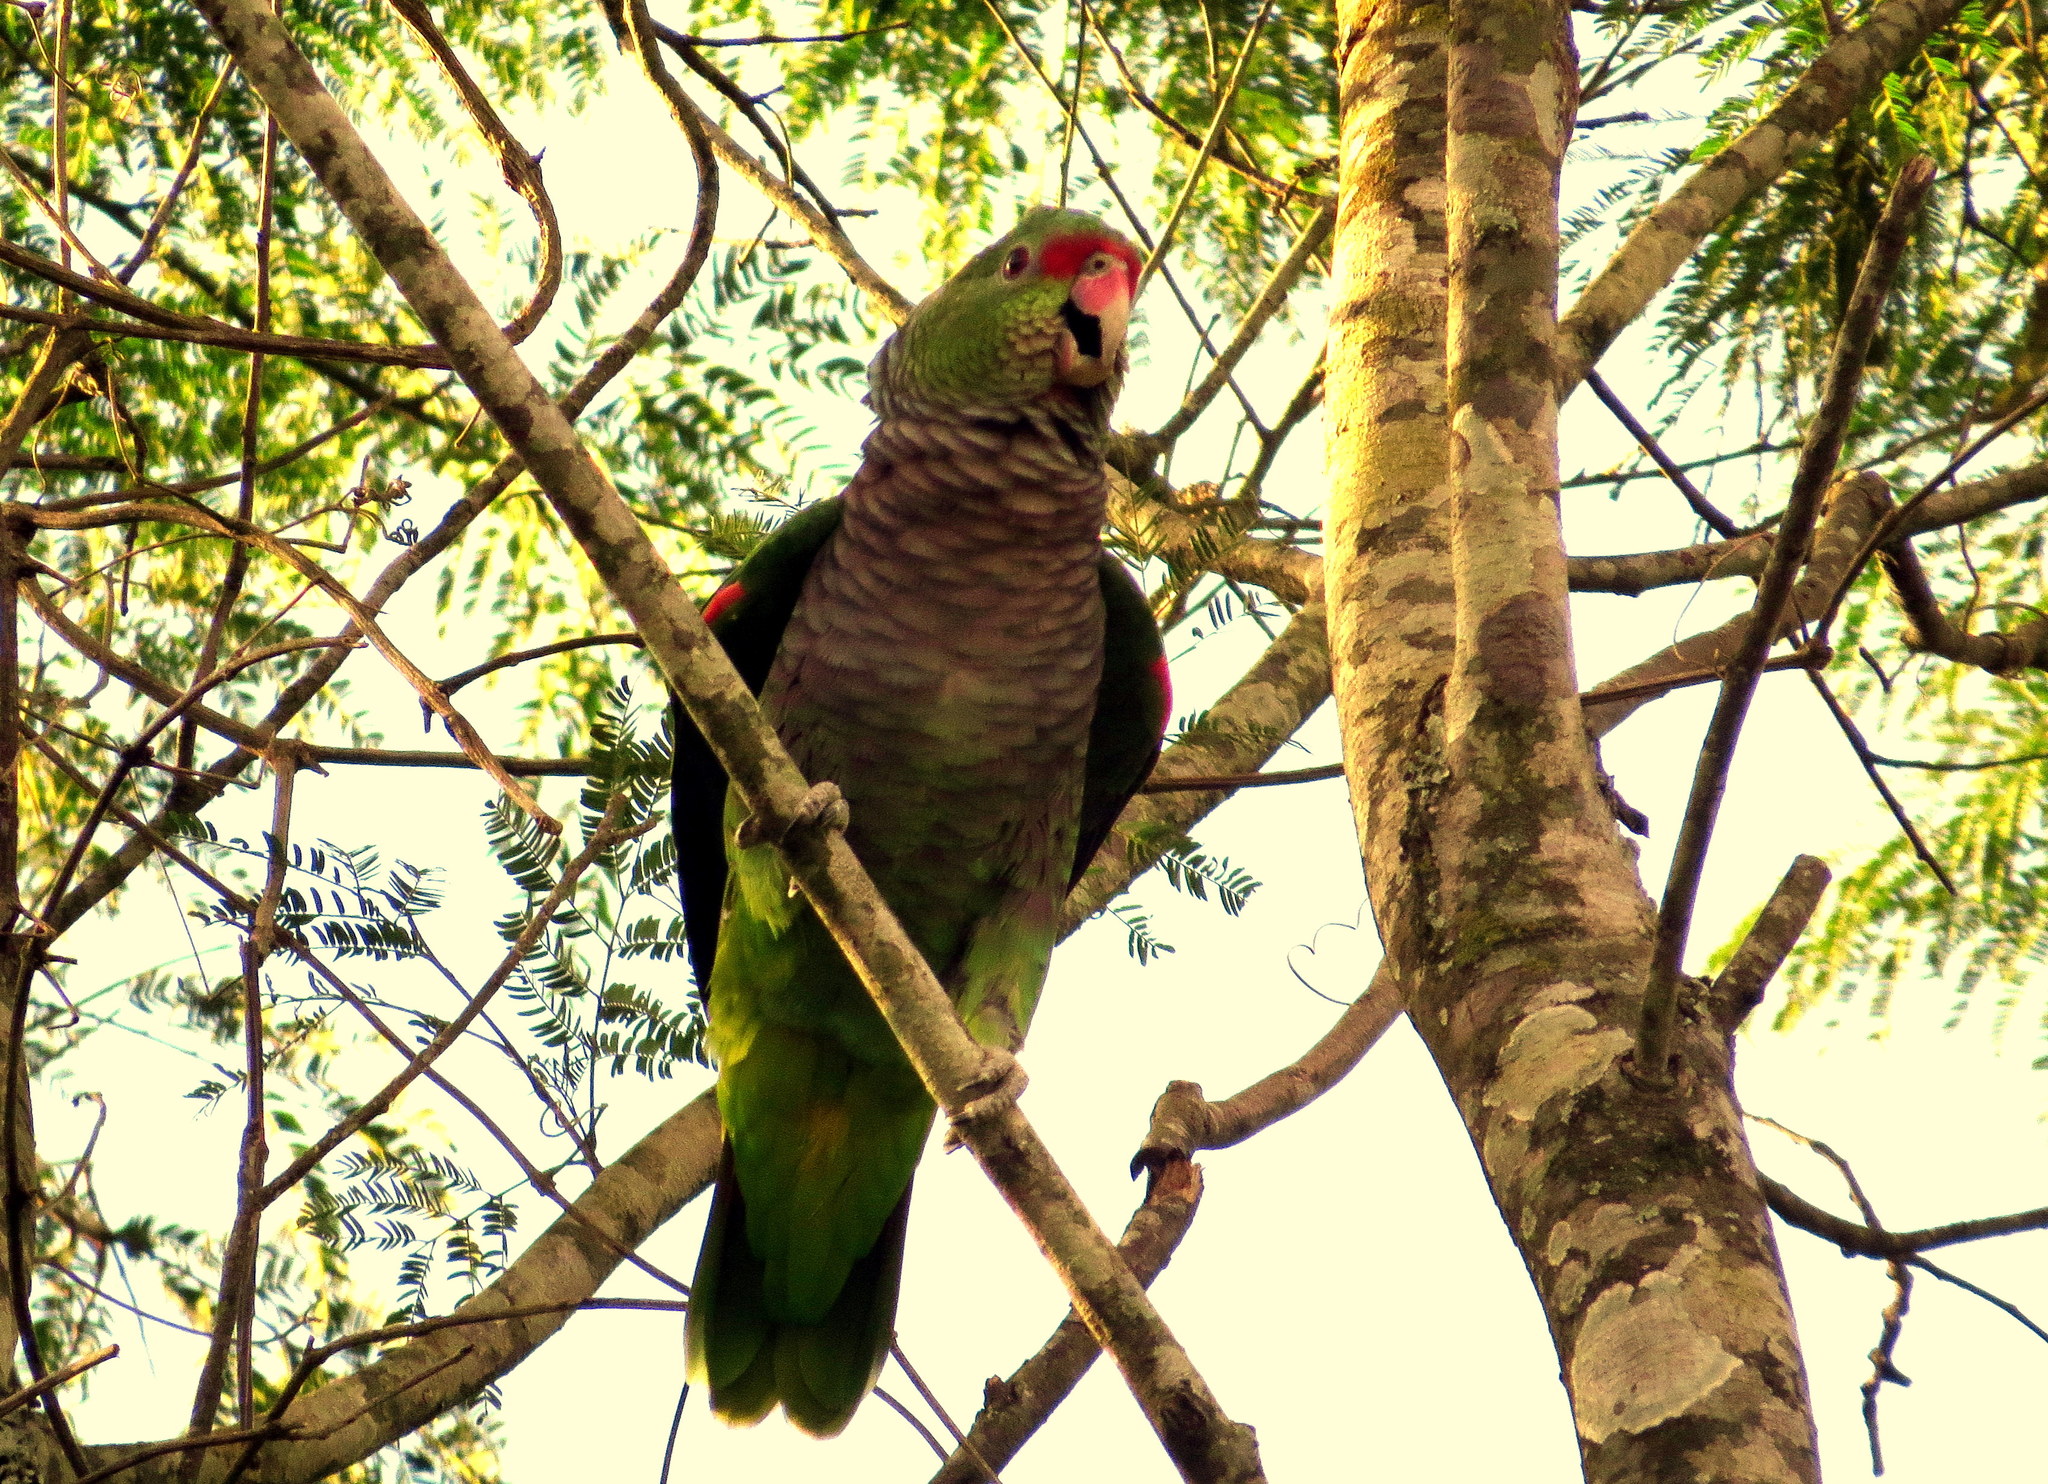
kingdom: Animalia
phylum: Chordata
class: Aves
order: Psittaciformes
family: Psittacidae
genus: Amazona
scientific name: Amazona vinacea
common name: Vinaceous-breasted amazon
